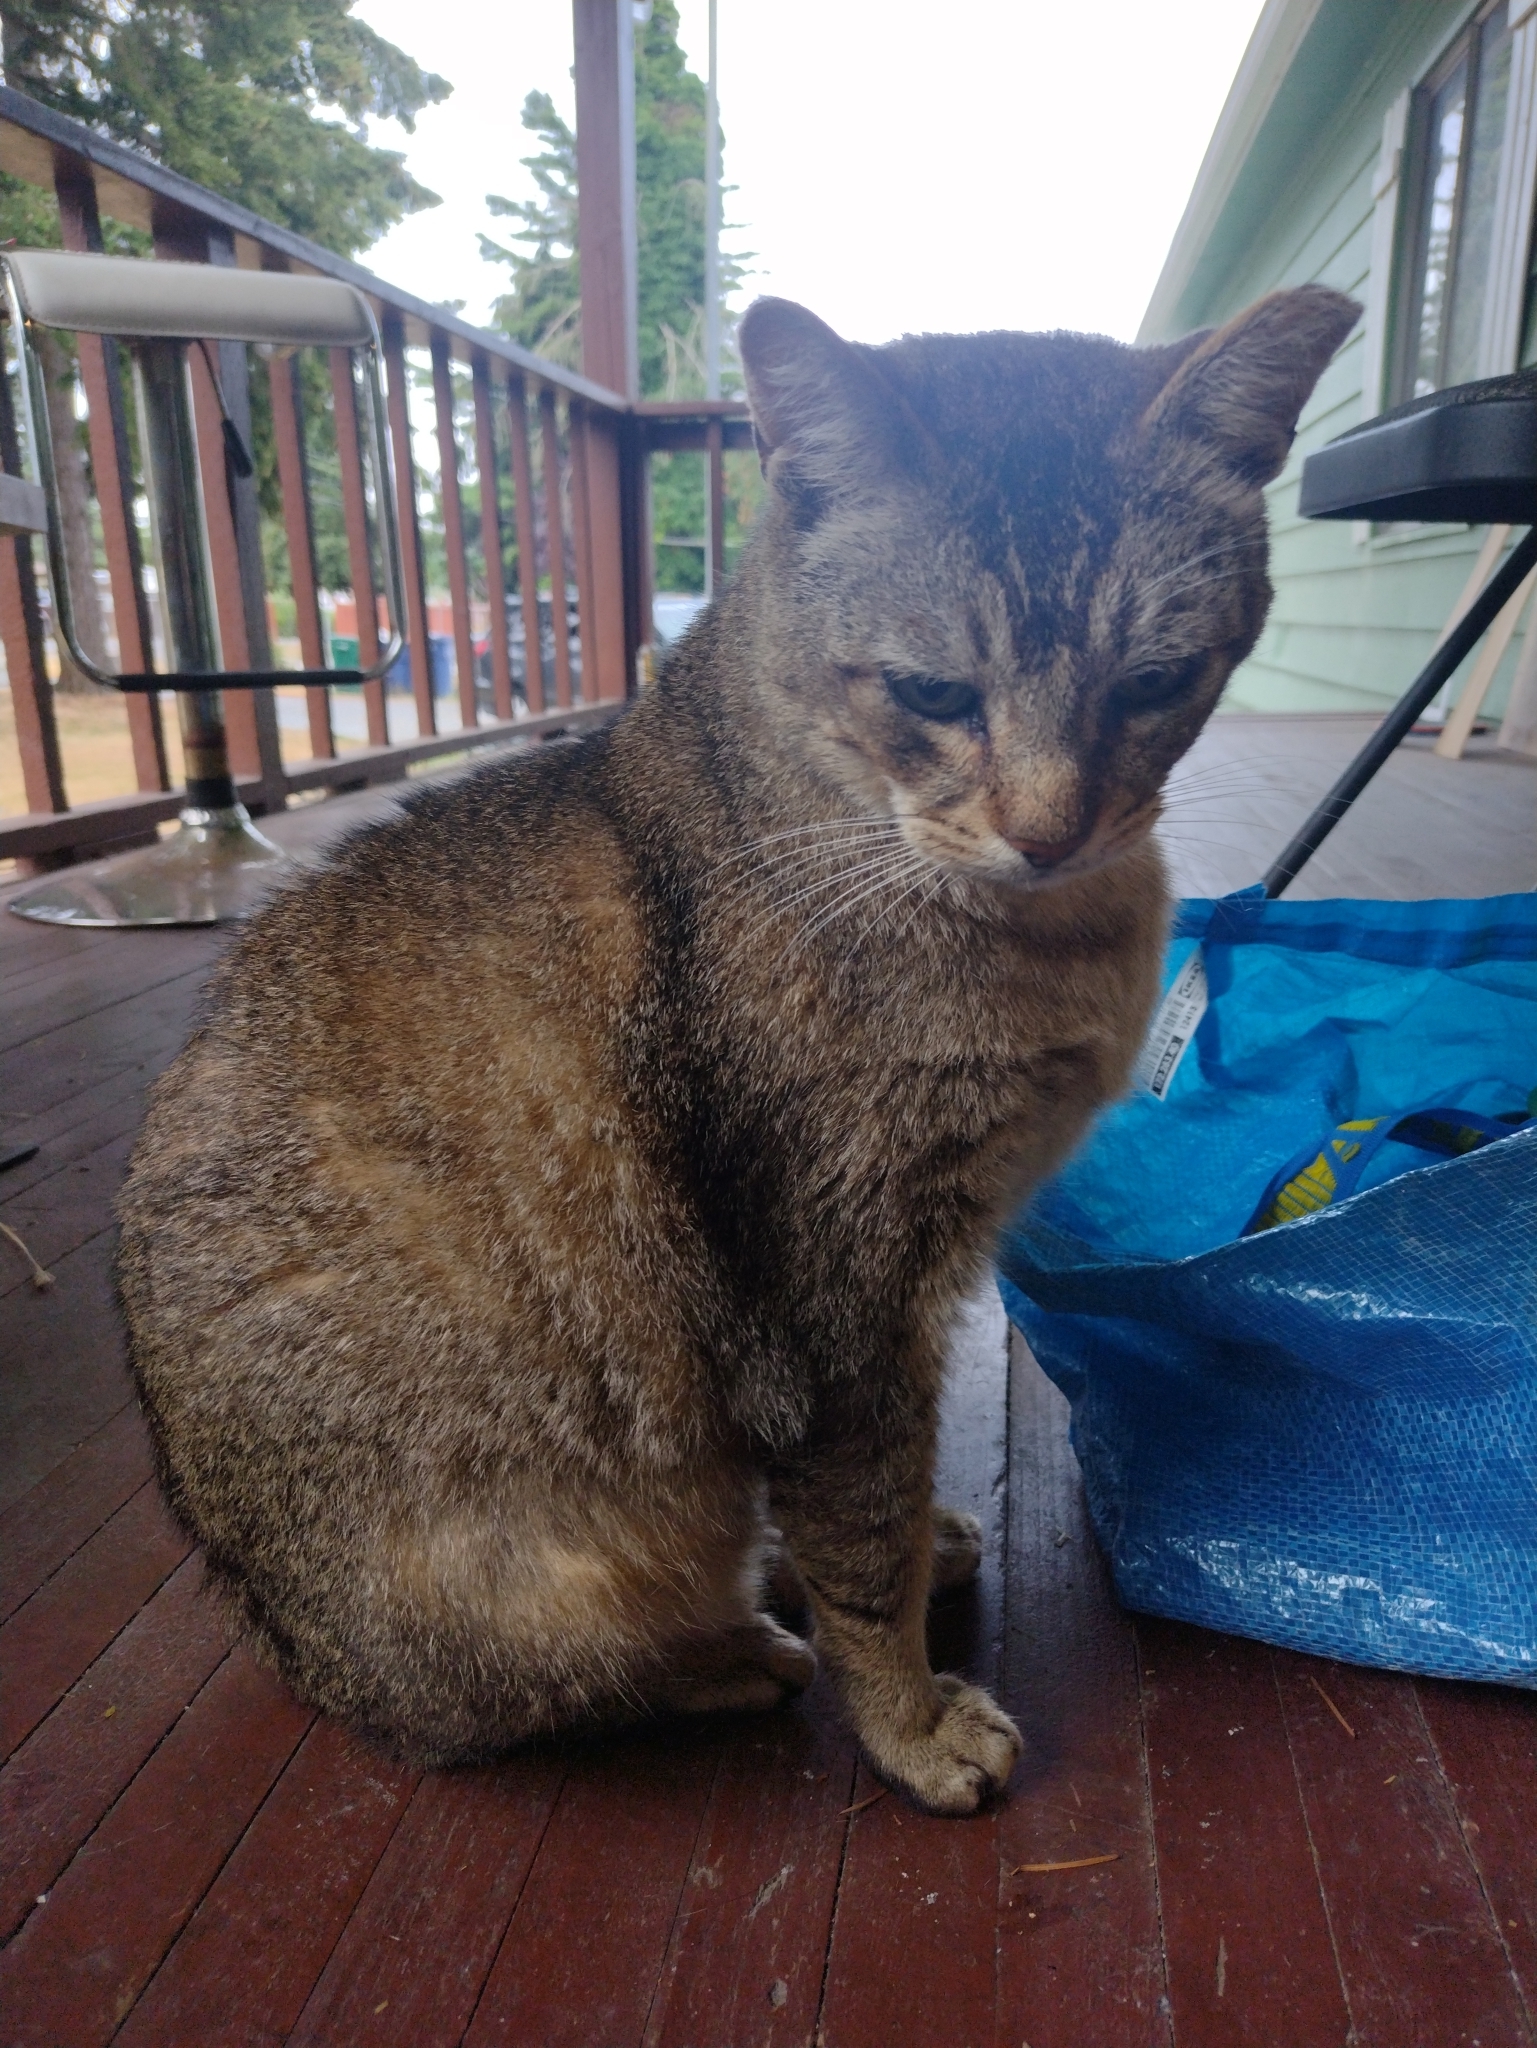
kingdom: Animalia
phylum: Chordata
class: Mammalia
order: Carnivora
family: Felidae
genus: Felis
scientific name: Felis catus
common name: Domestic cat
